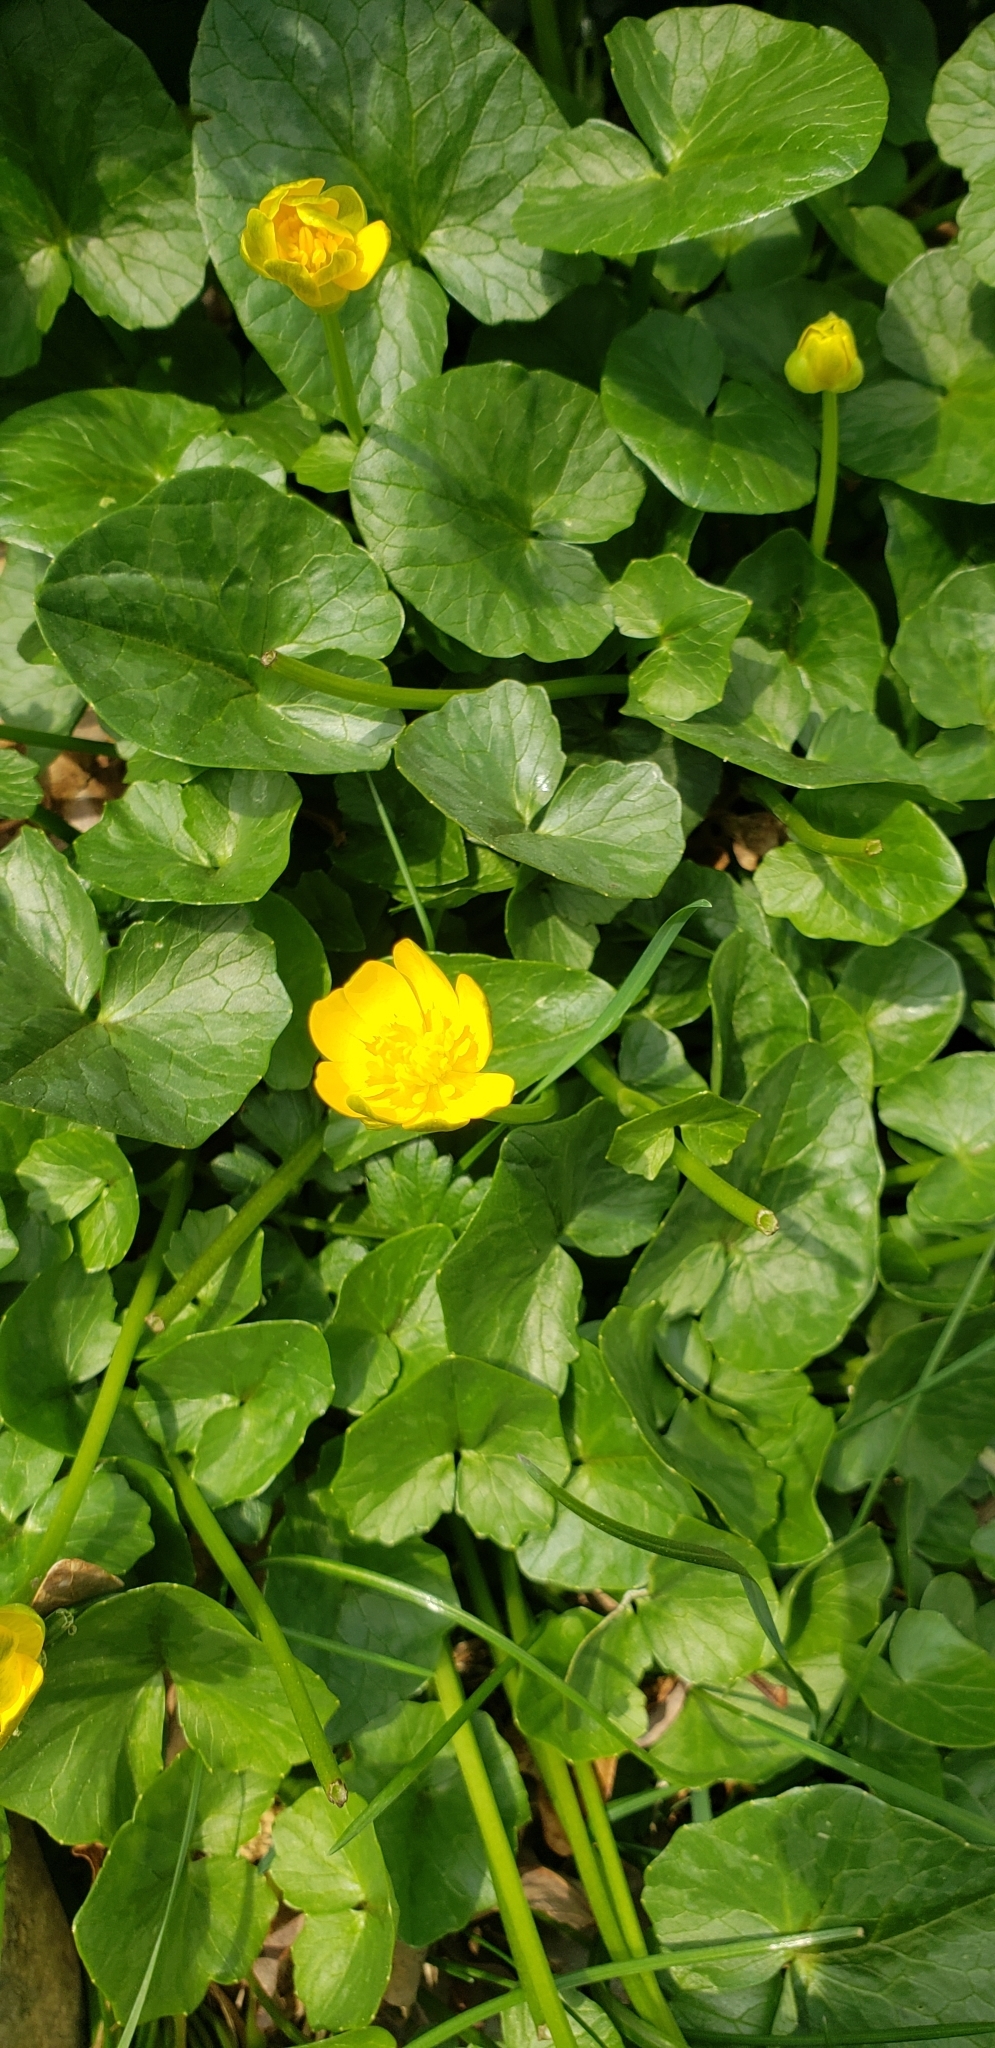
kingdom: Plantae
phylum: Tracheophyta
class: Magnoliopsida
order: Ranunculales
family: Ranunculaceae
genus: Ficaria
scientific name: Ficaria verna
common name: Lesser celandine
